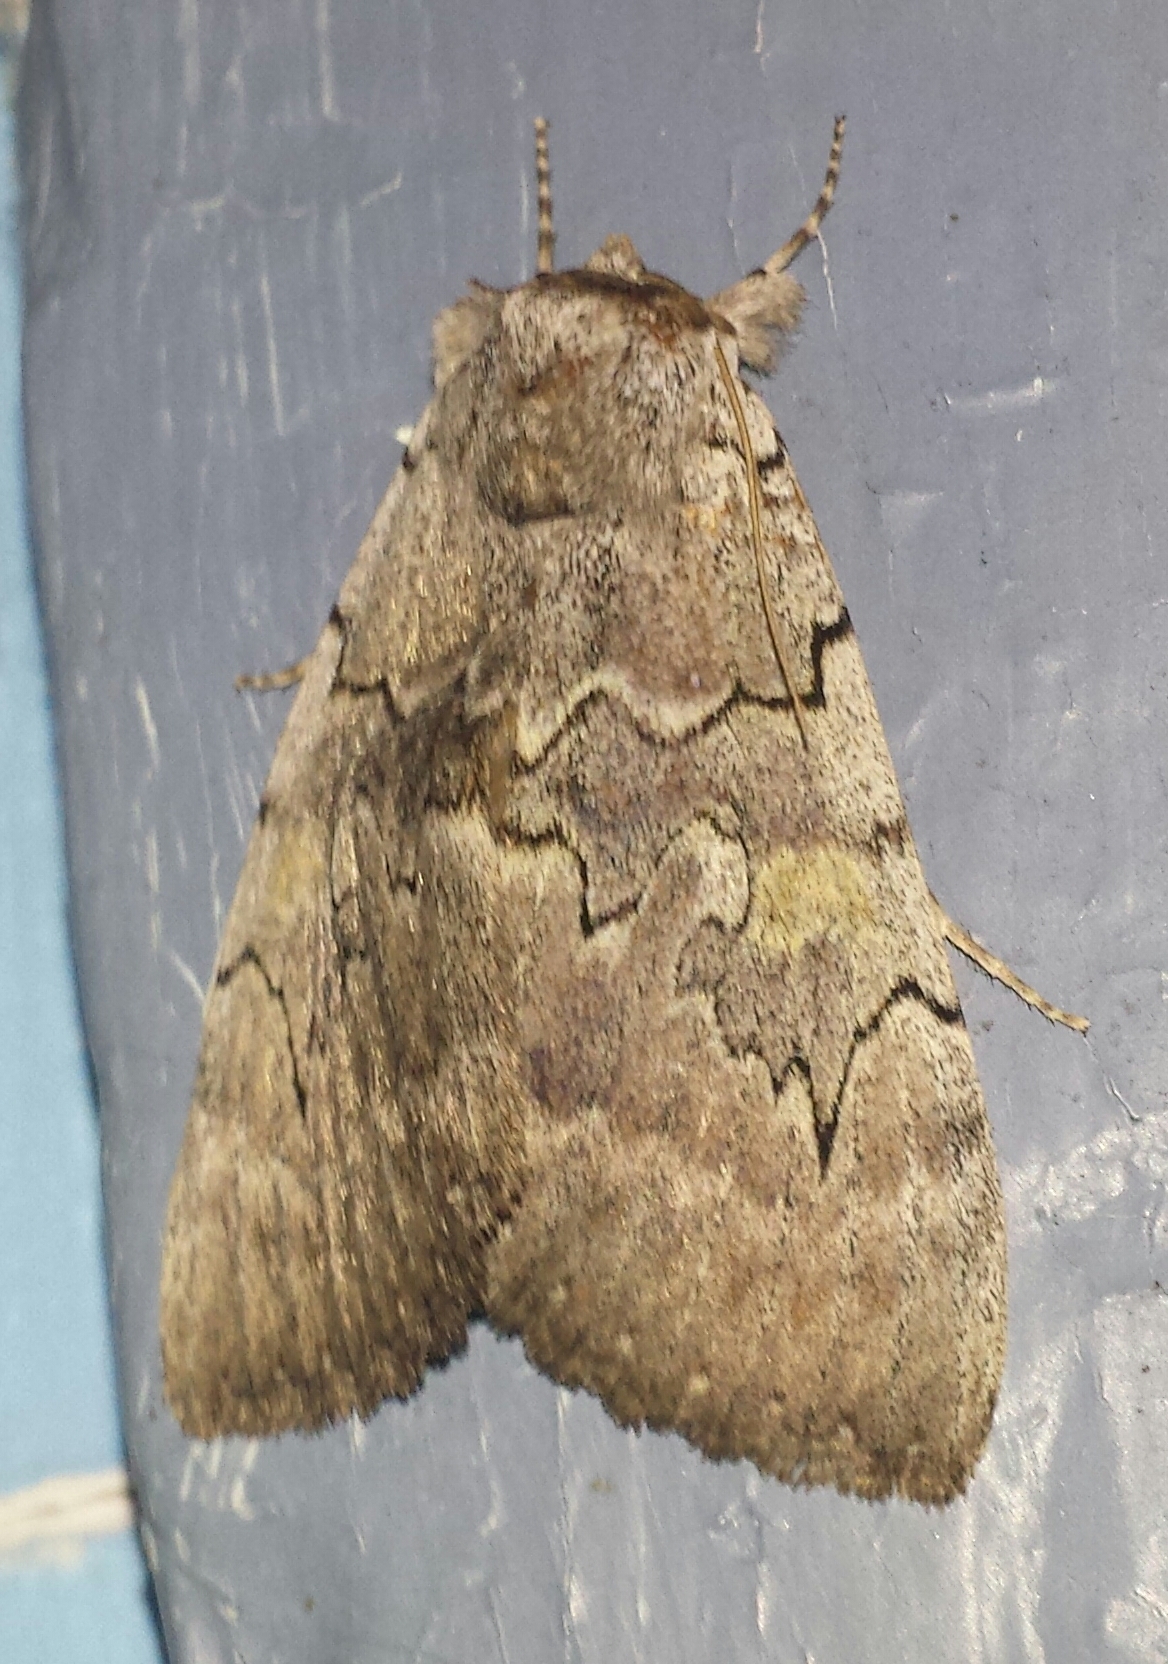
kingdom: Animalia
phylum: Arthropoda
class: Insecta
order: Lepidoptera
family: Erebidae
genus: Catocala
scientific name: Catocala concumbens
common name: Pink underwing
